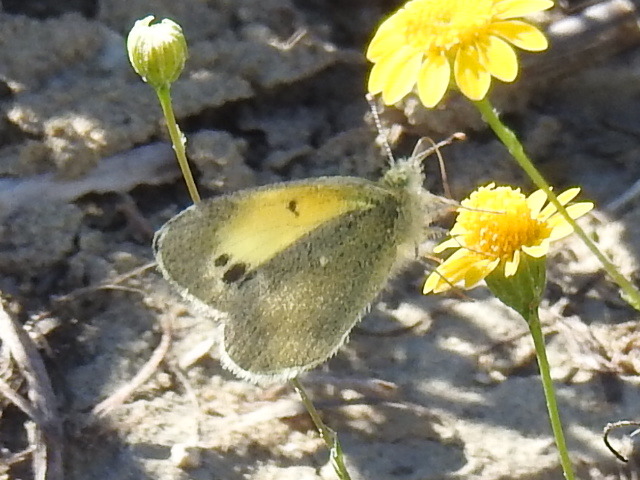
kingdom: Animalia
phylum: Arthropoda
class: Insecta
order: Lepidoptera
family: Pieridae
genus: Nathalis
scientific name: Nathalis iole
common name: Dainty sulphur
